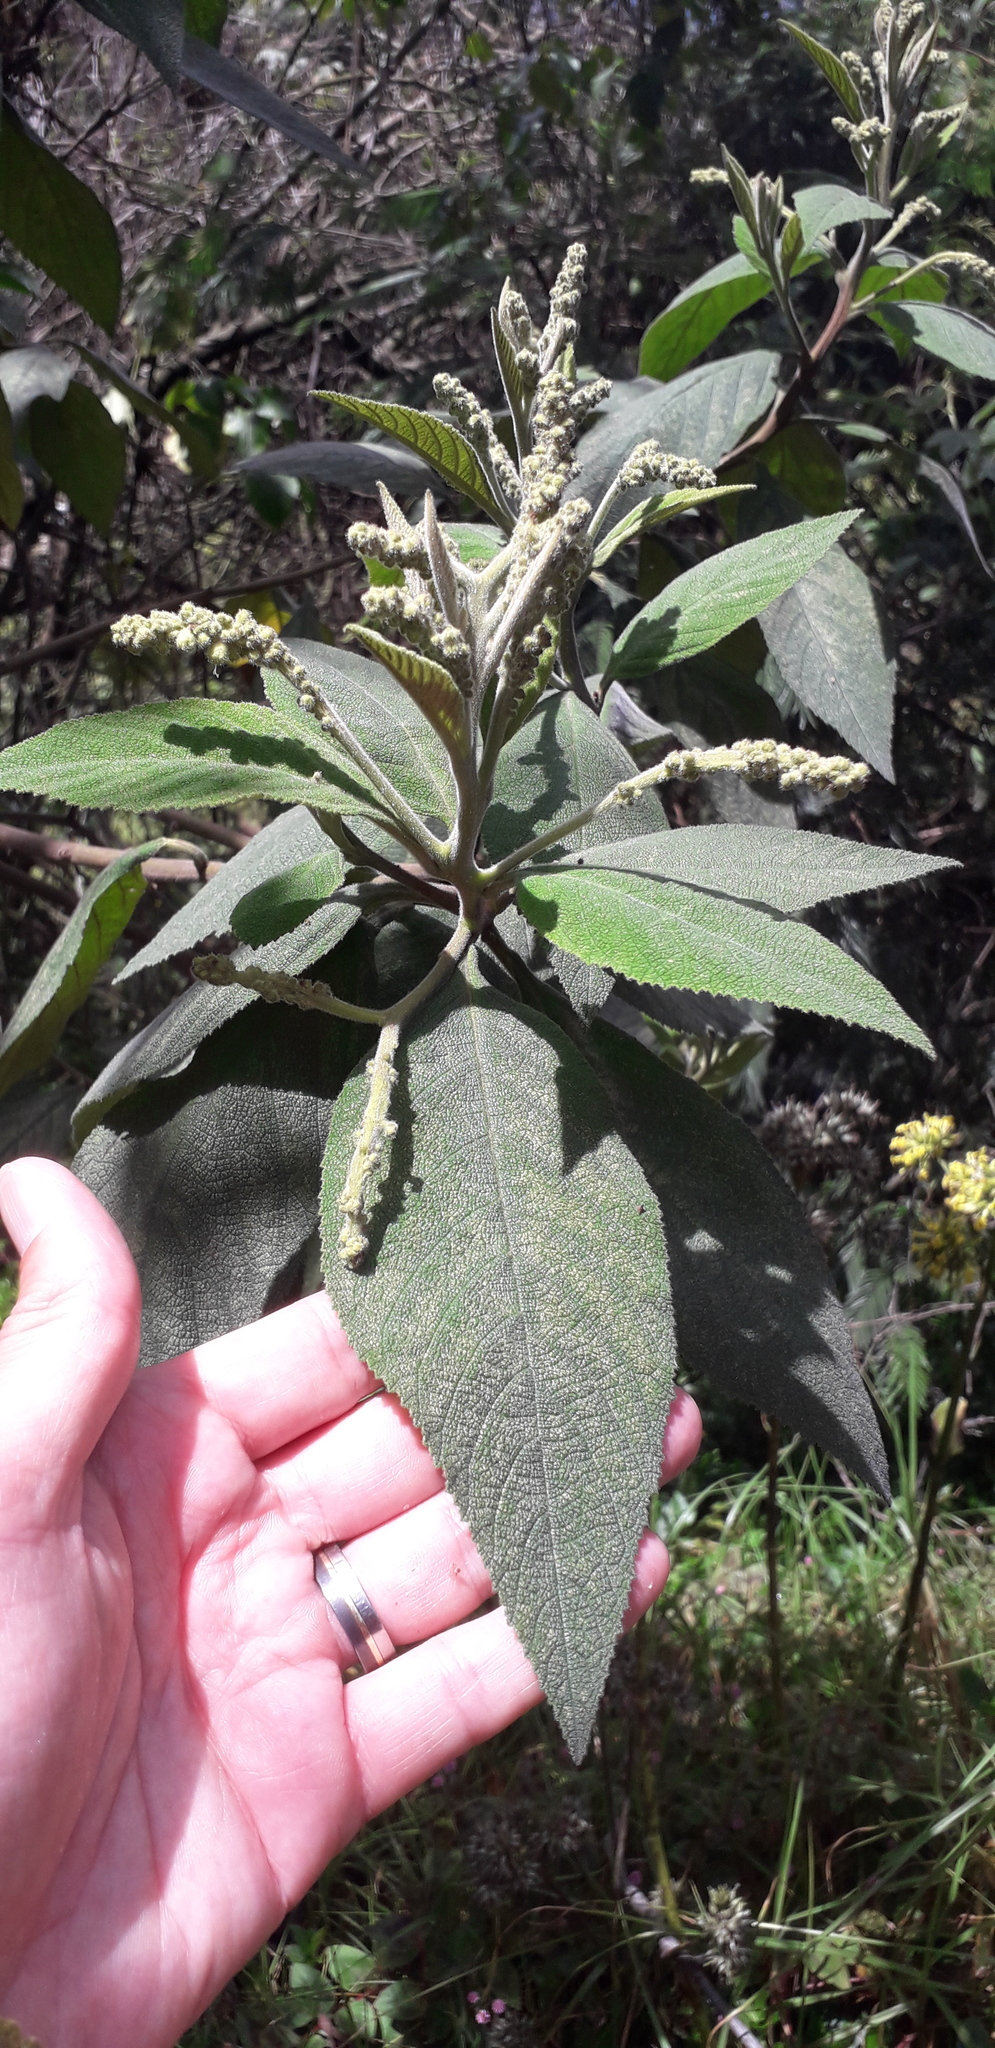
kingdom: Plantae
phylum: Tracheophyta
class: Magnoliopsida
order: Boraginales
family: Cordiaceae
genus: Varronia
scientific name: Varronia cylindrostachya
